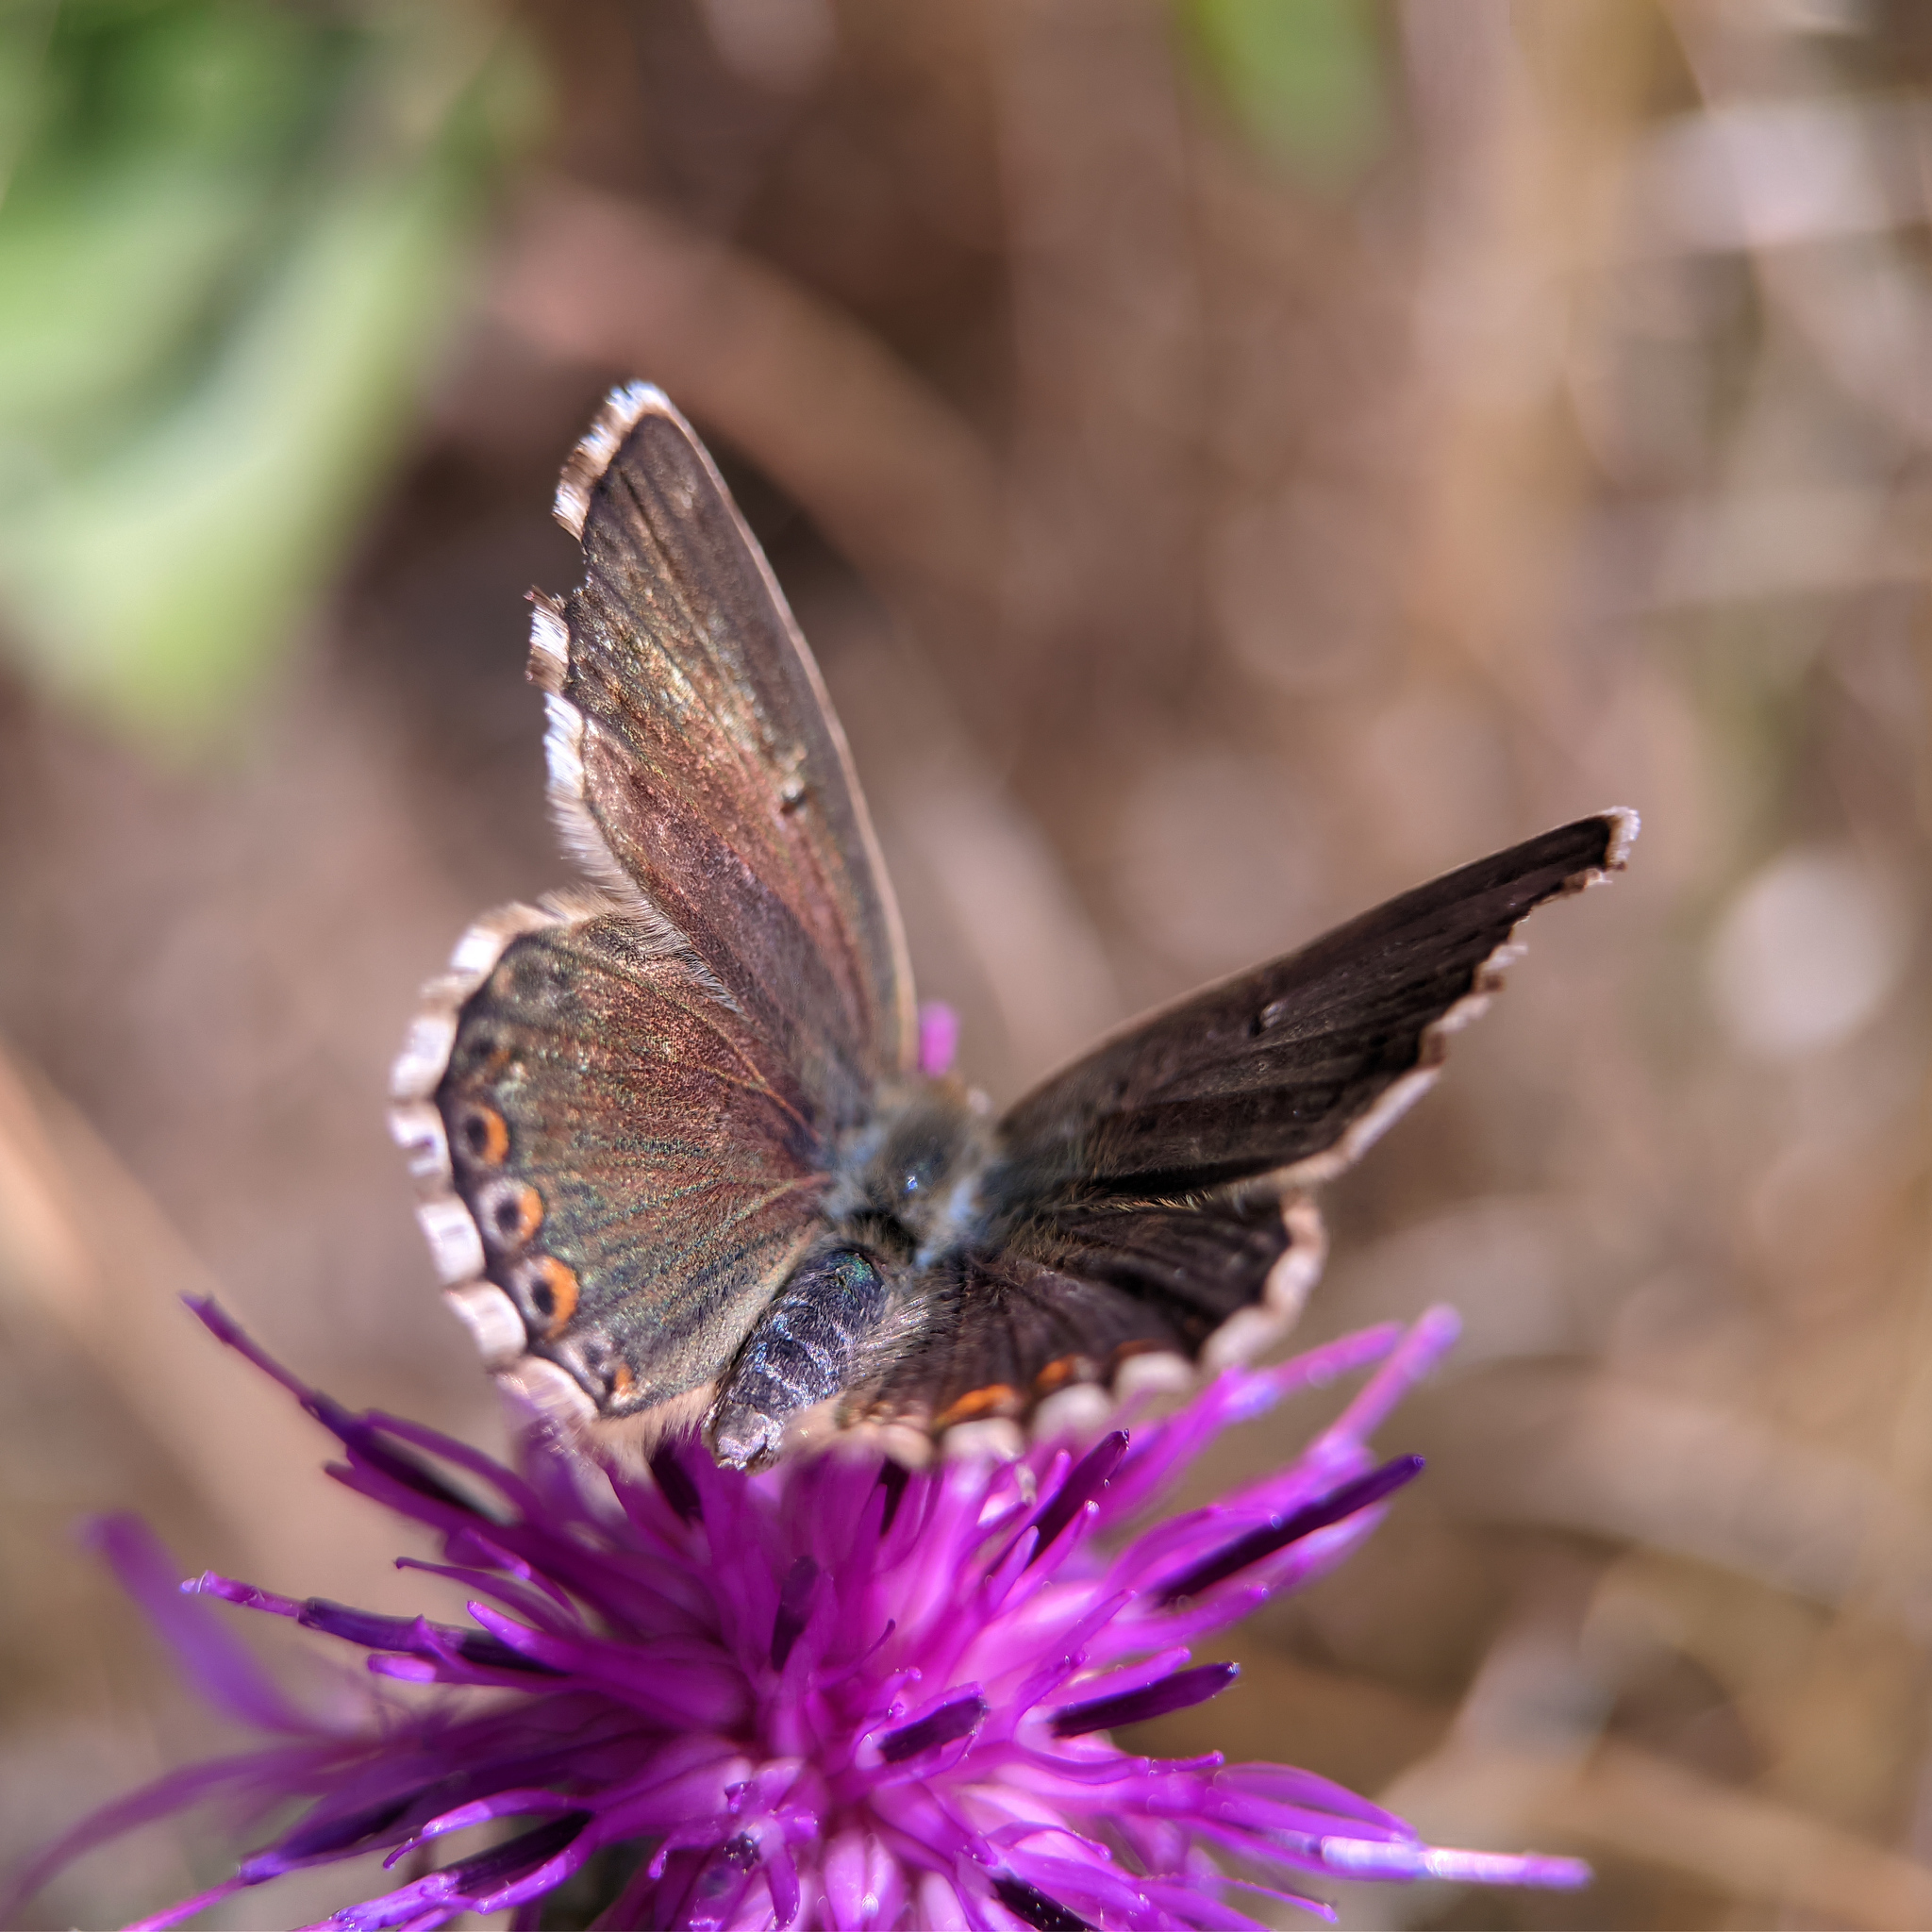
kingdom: Animalia
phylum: Arthropoda
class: Insecta
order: Lepidoptera
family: Lycaenidae
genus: Lysandra
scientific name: Lysandra coridon
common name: Chalkhill blue
